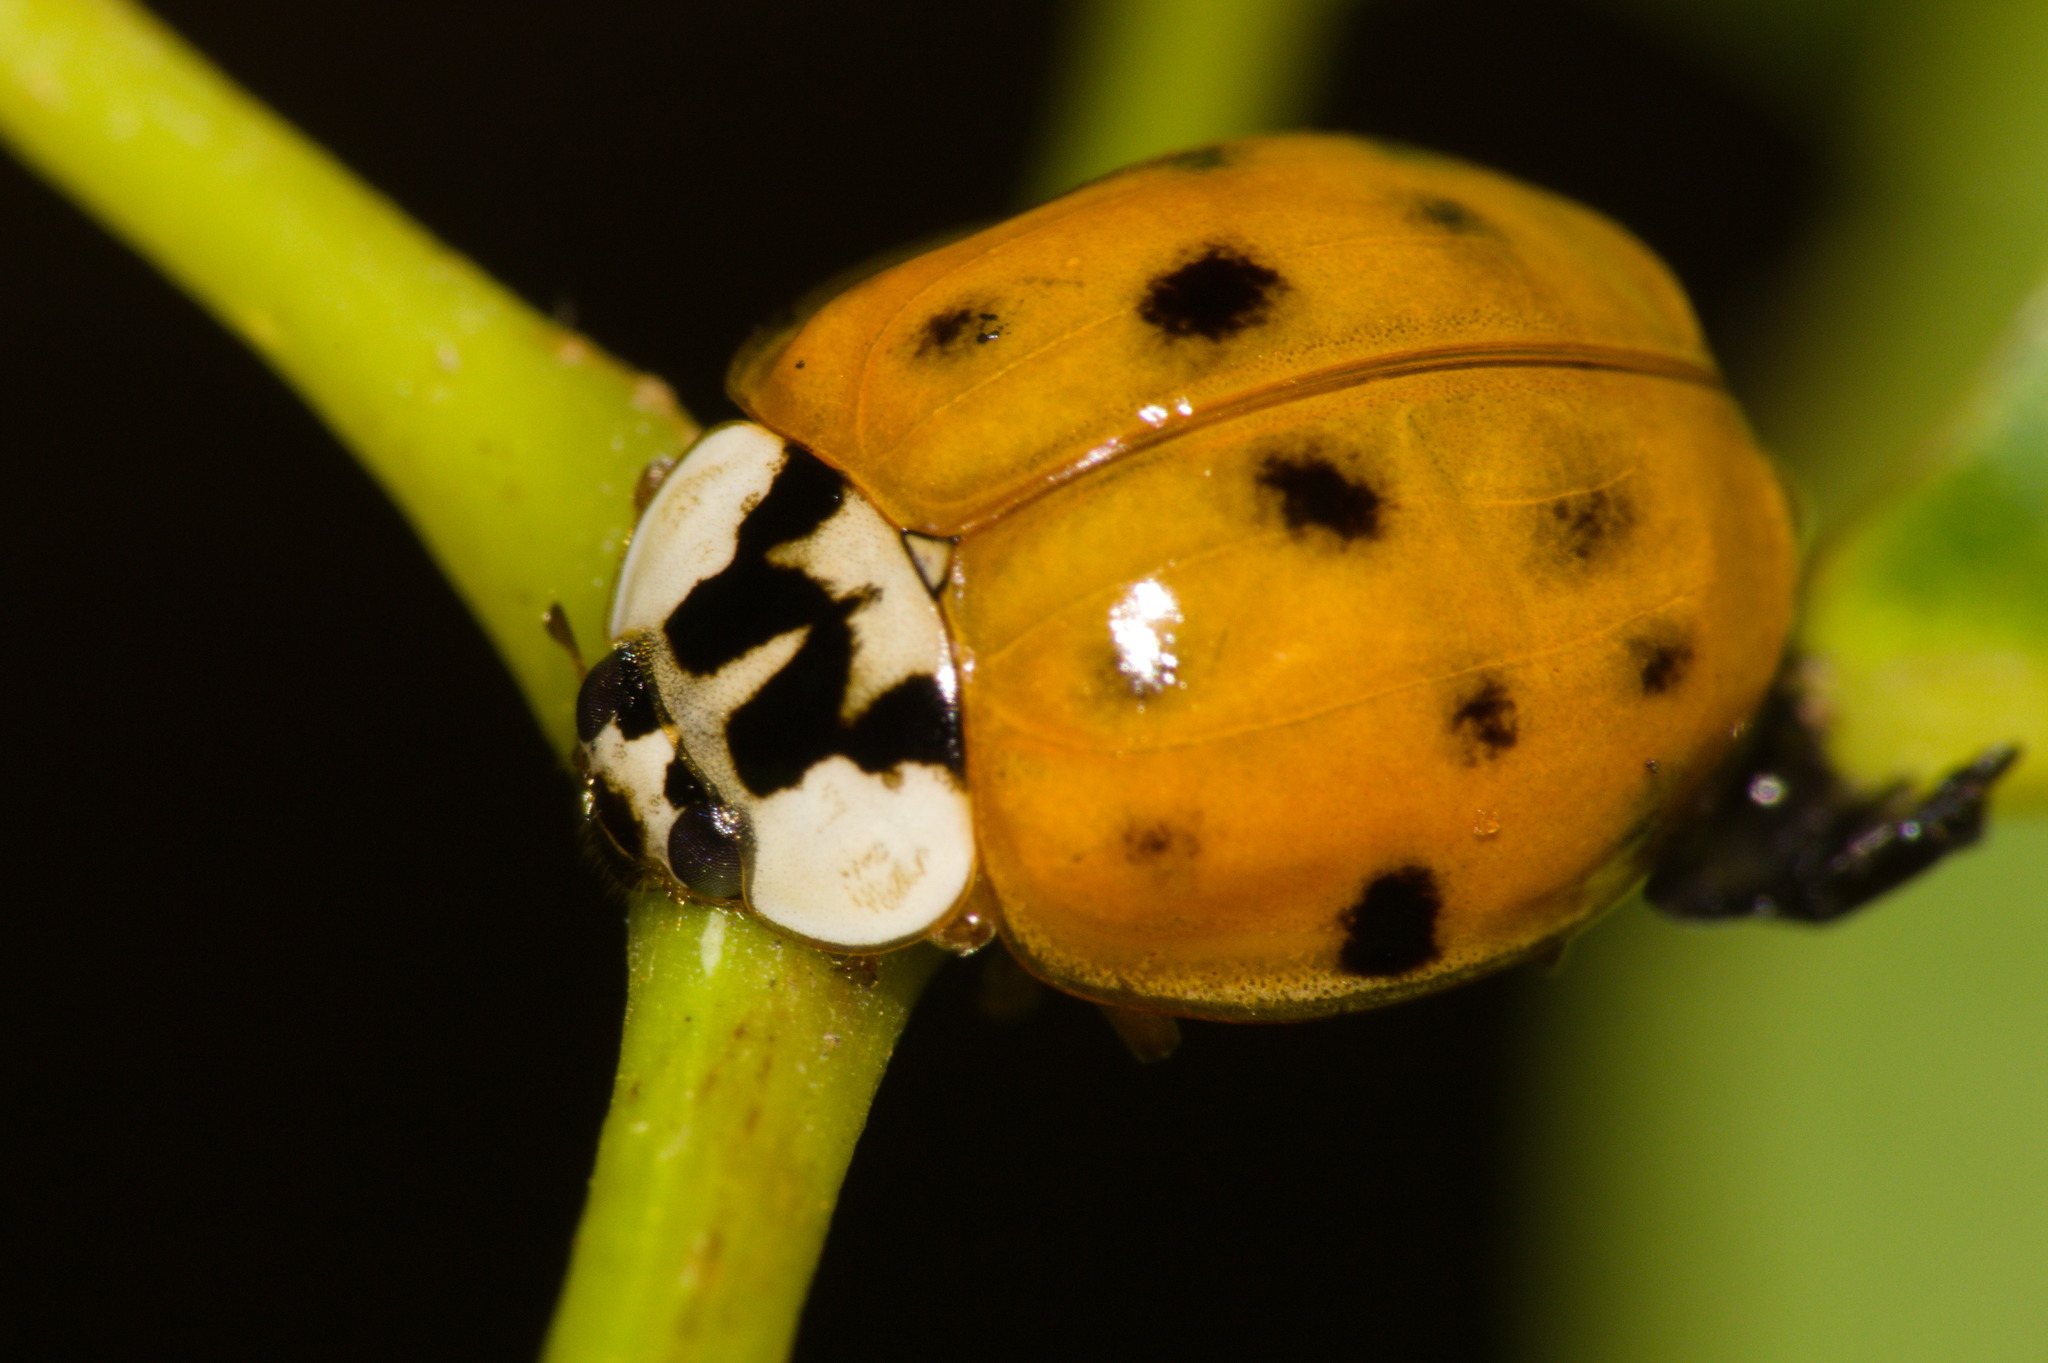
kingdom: Animalia
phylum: Arthropoda
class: Insecta
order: Coleoptera
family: Coccinellidae
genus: Harmonia
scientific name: Harmonia axyridis
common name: Harlequin ladybird
